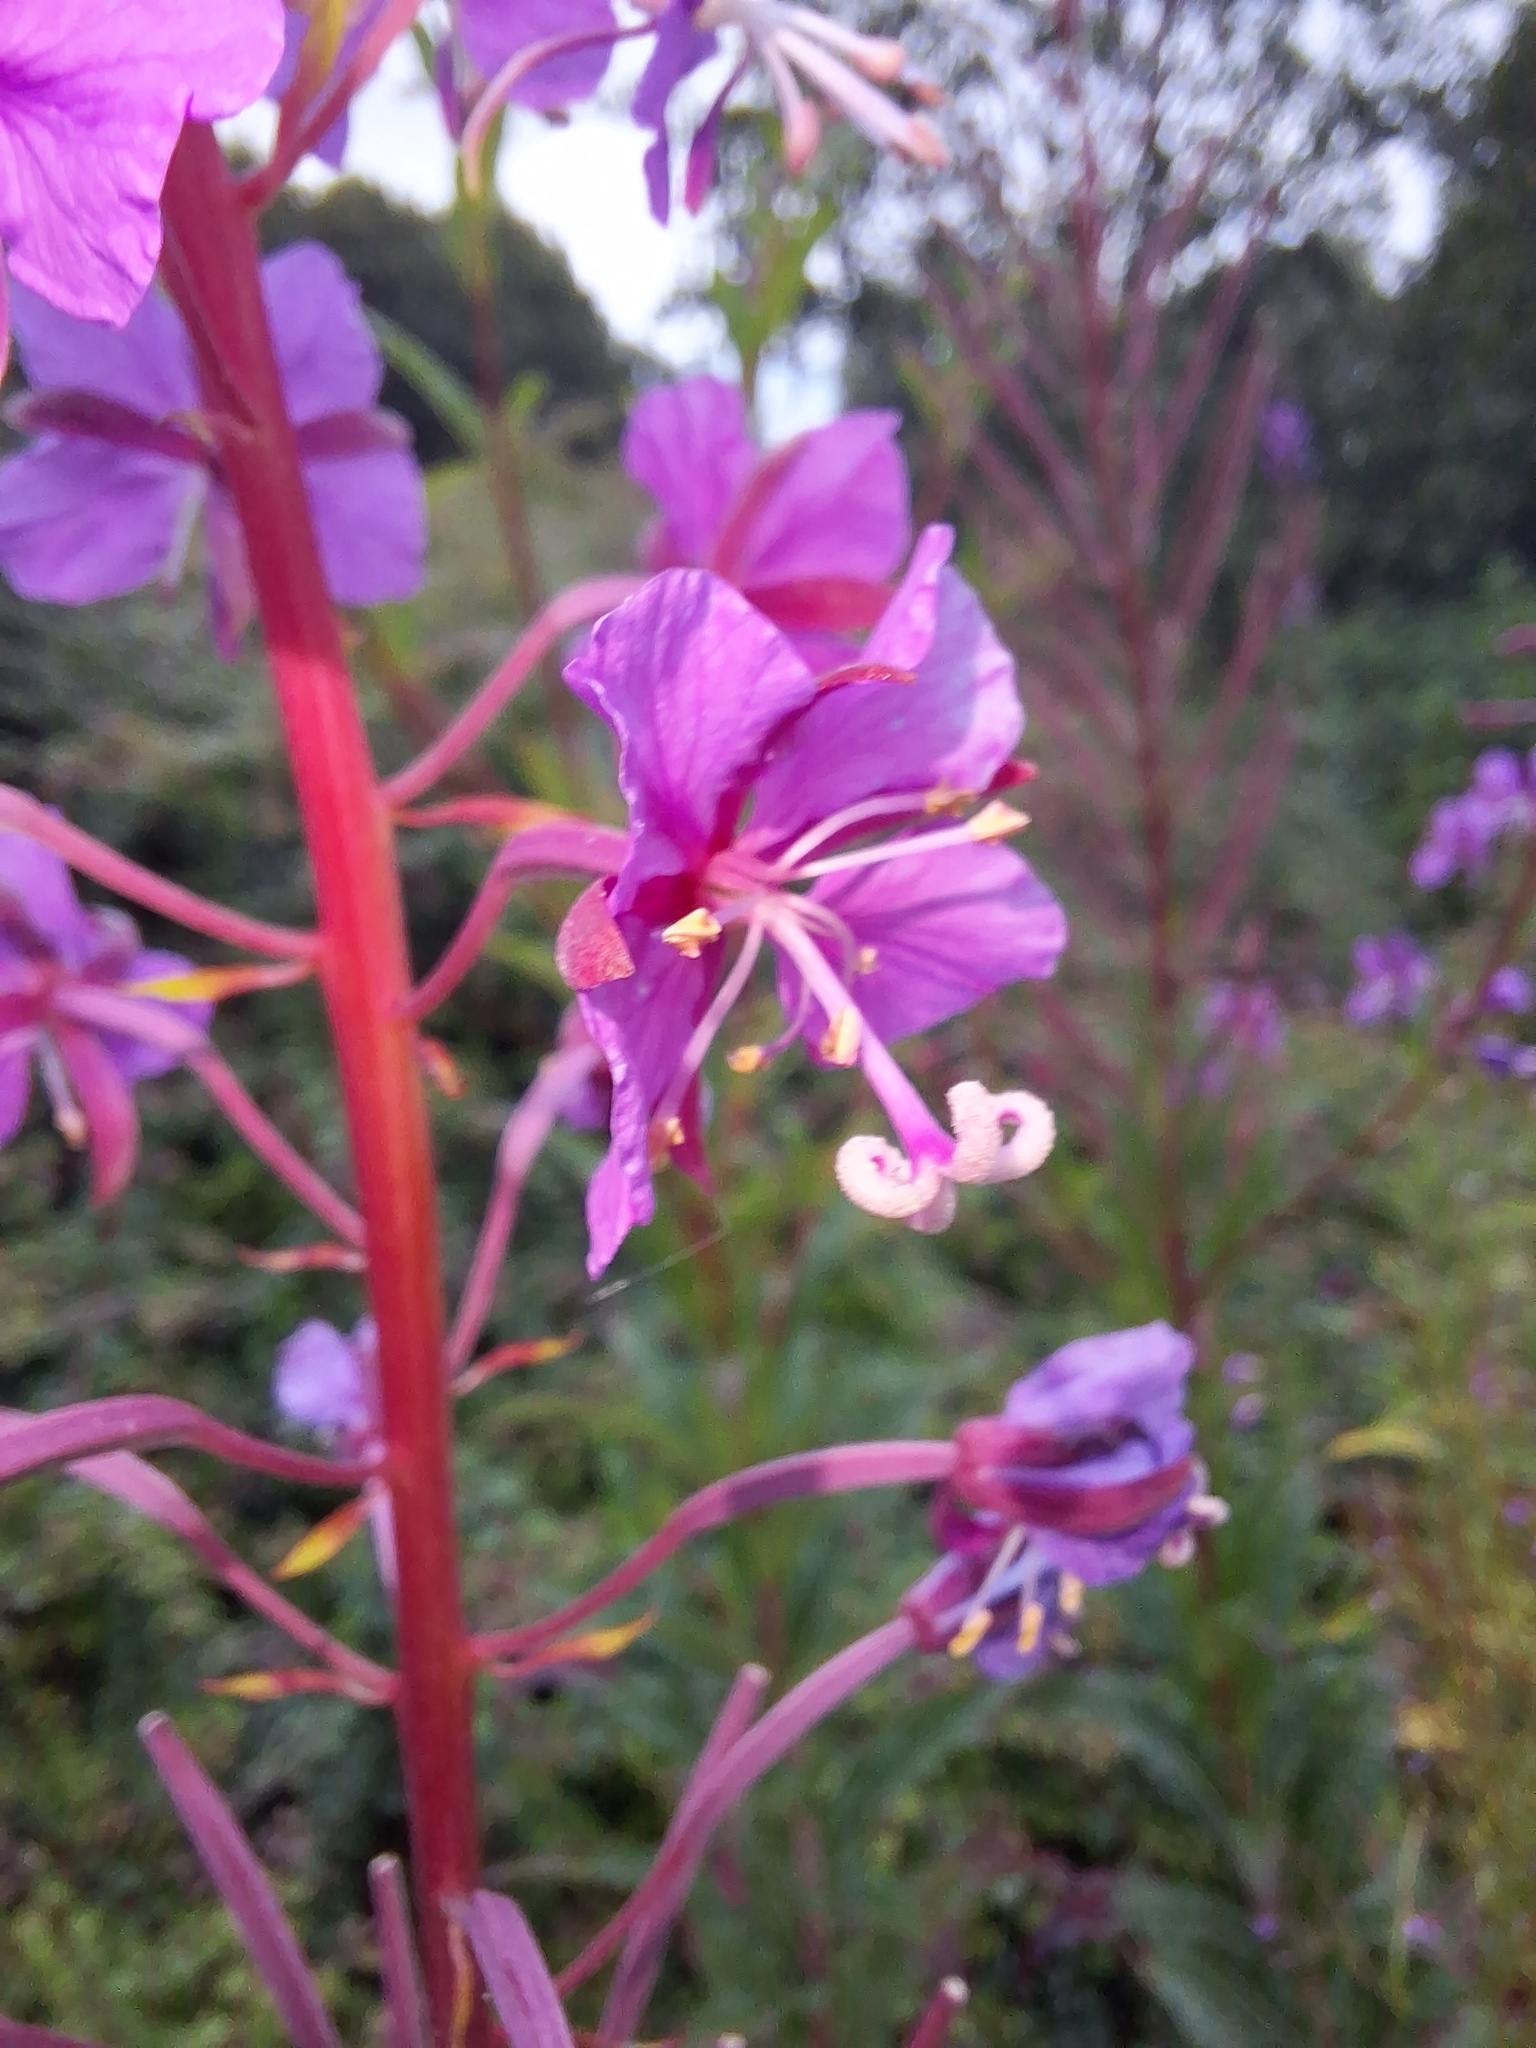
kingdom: Plantae
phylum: Tracheophyta
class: Magnoliopsida
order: Myrtales
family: Onagraceae
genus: Chamaenerion
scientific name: Chamaenerion angustifolium
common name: Fireweed
